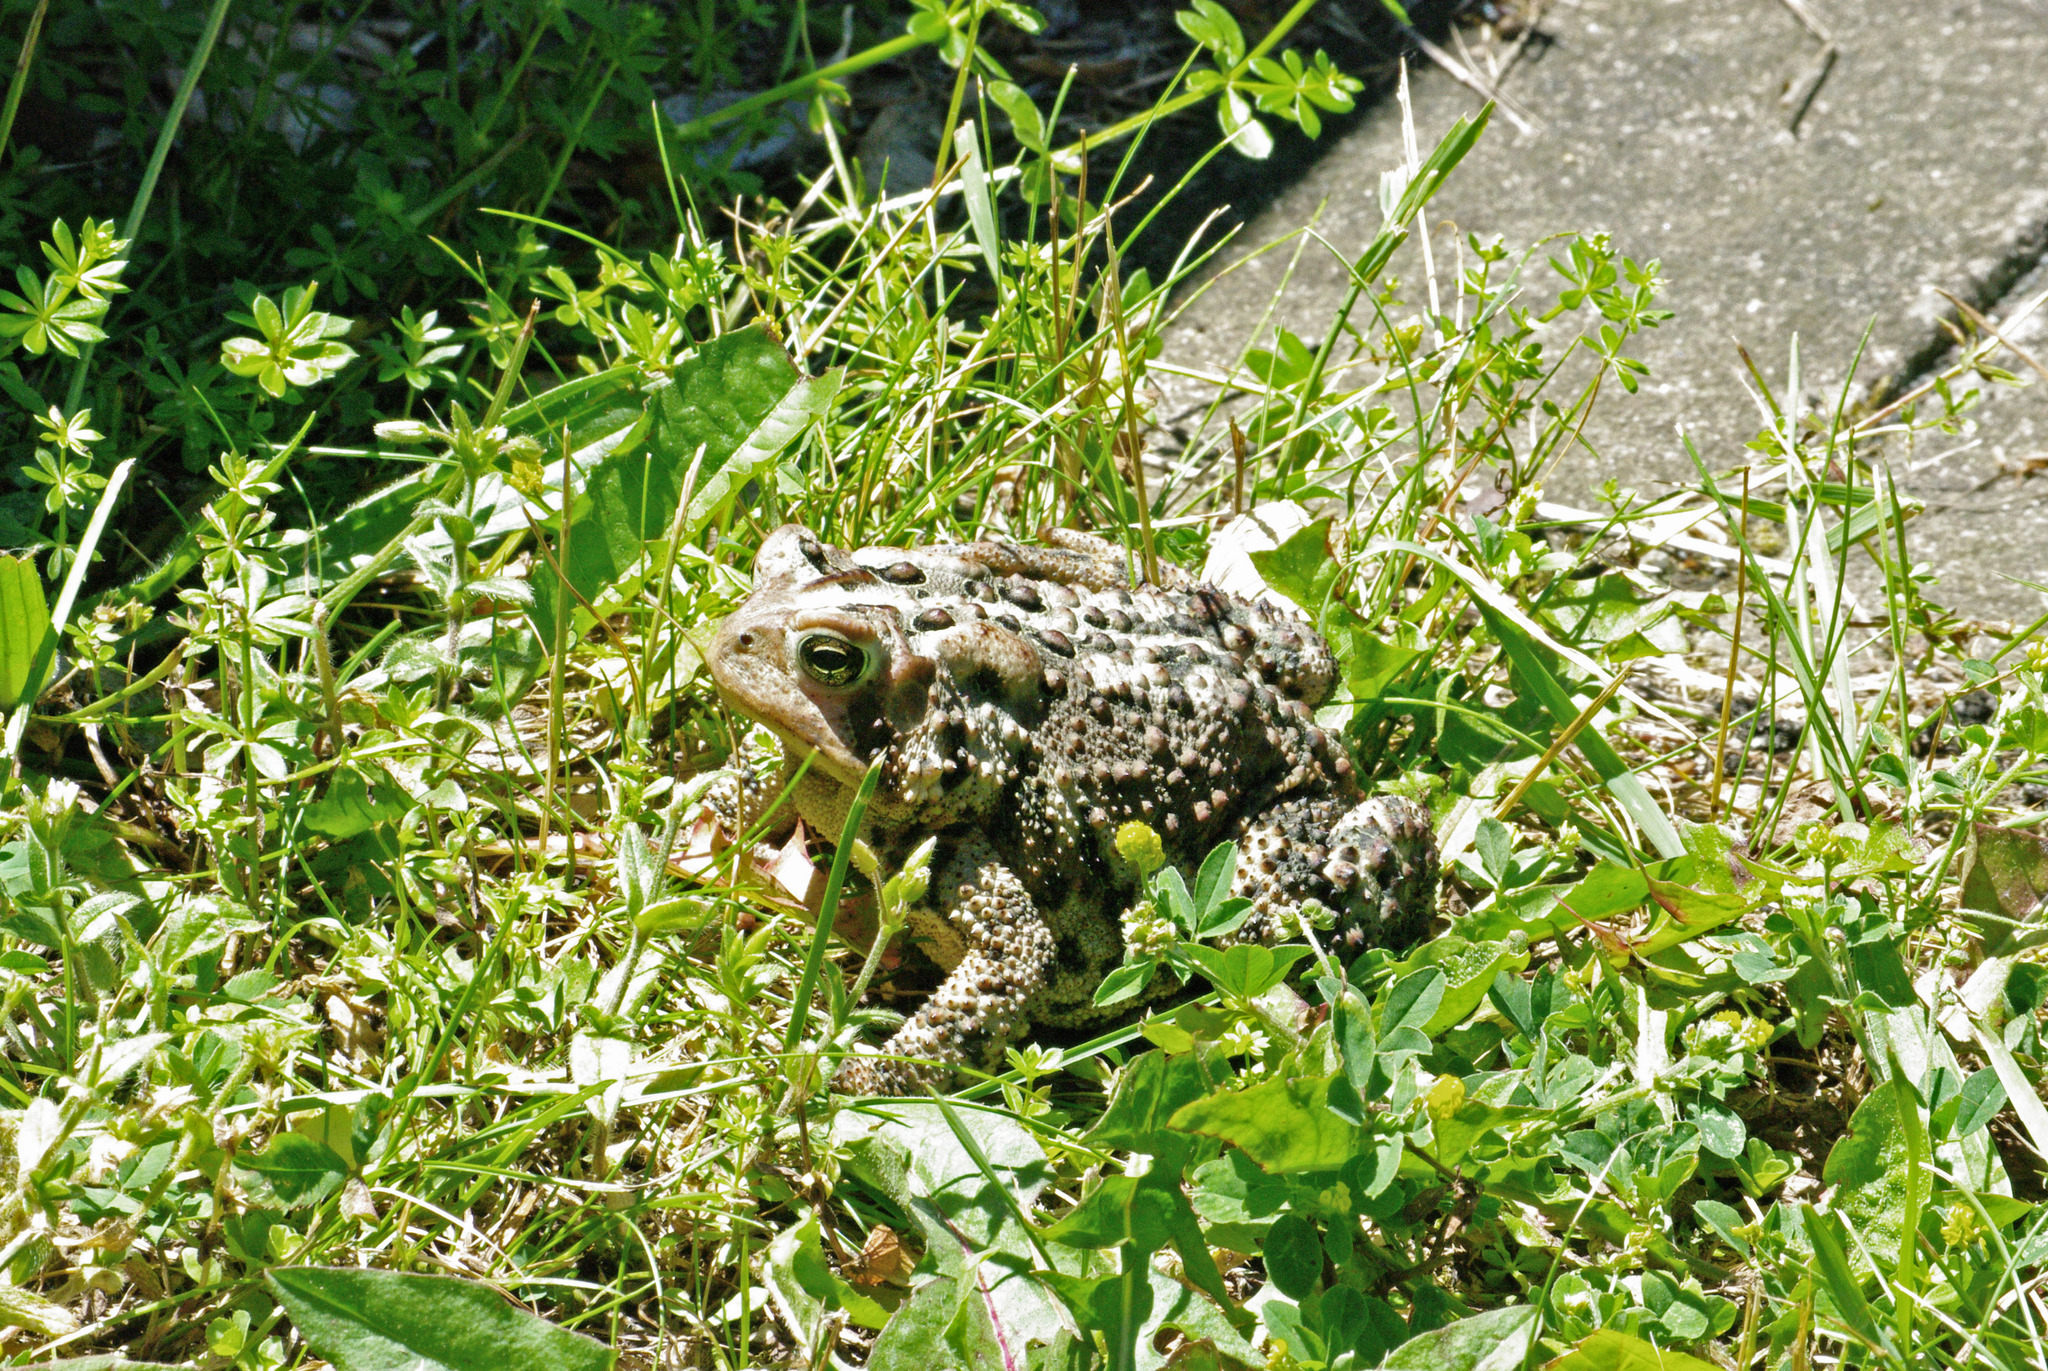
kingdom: Animalia
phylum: Chordata
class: Amphibia
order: Anura
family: Bufonidae
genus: Anaxyrus
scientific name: Anaxyrus americanus
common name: American toad
